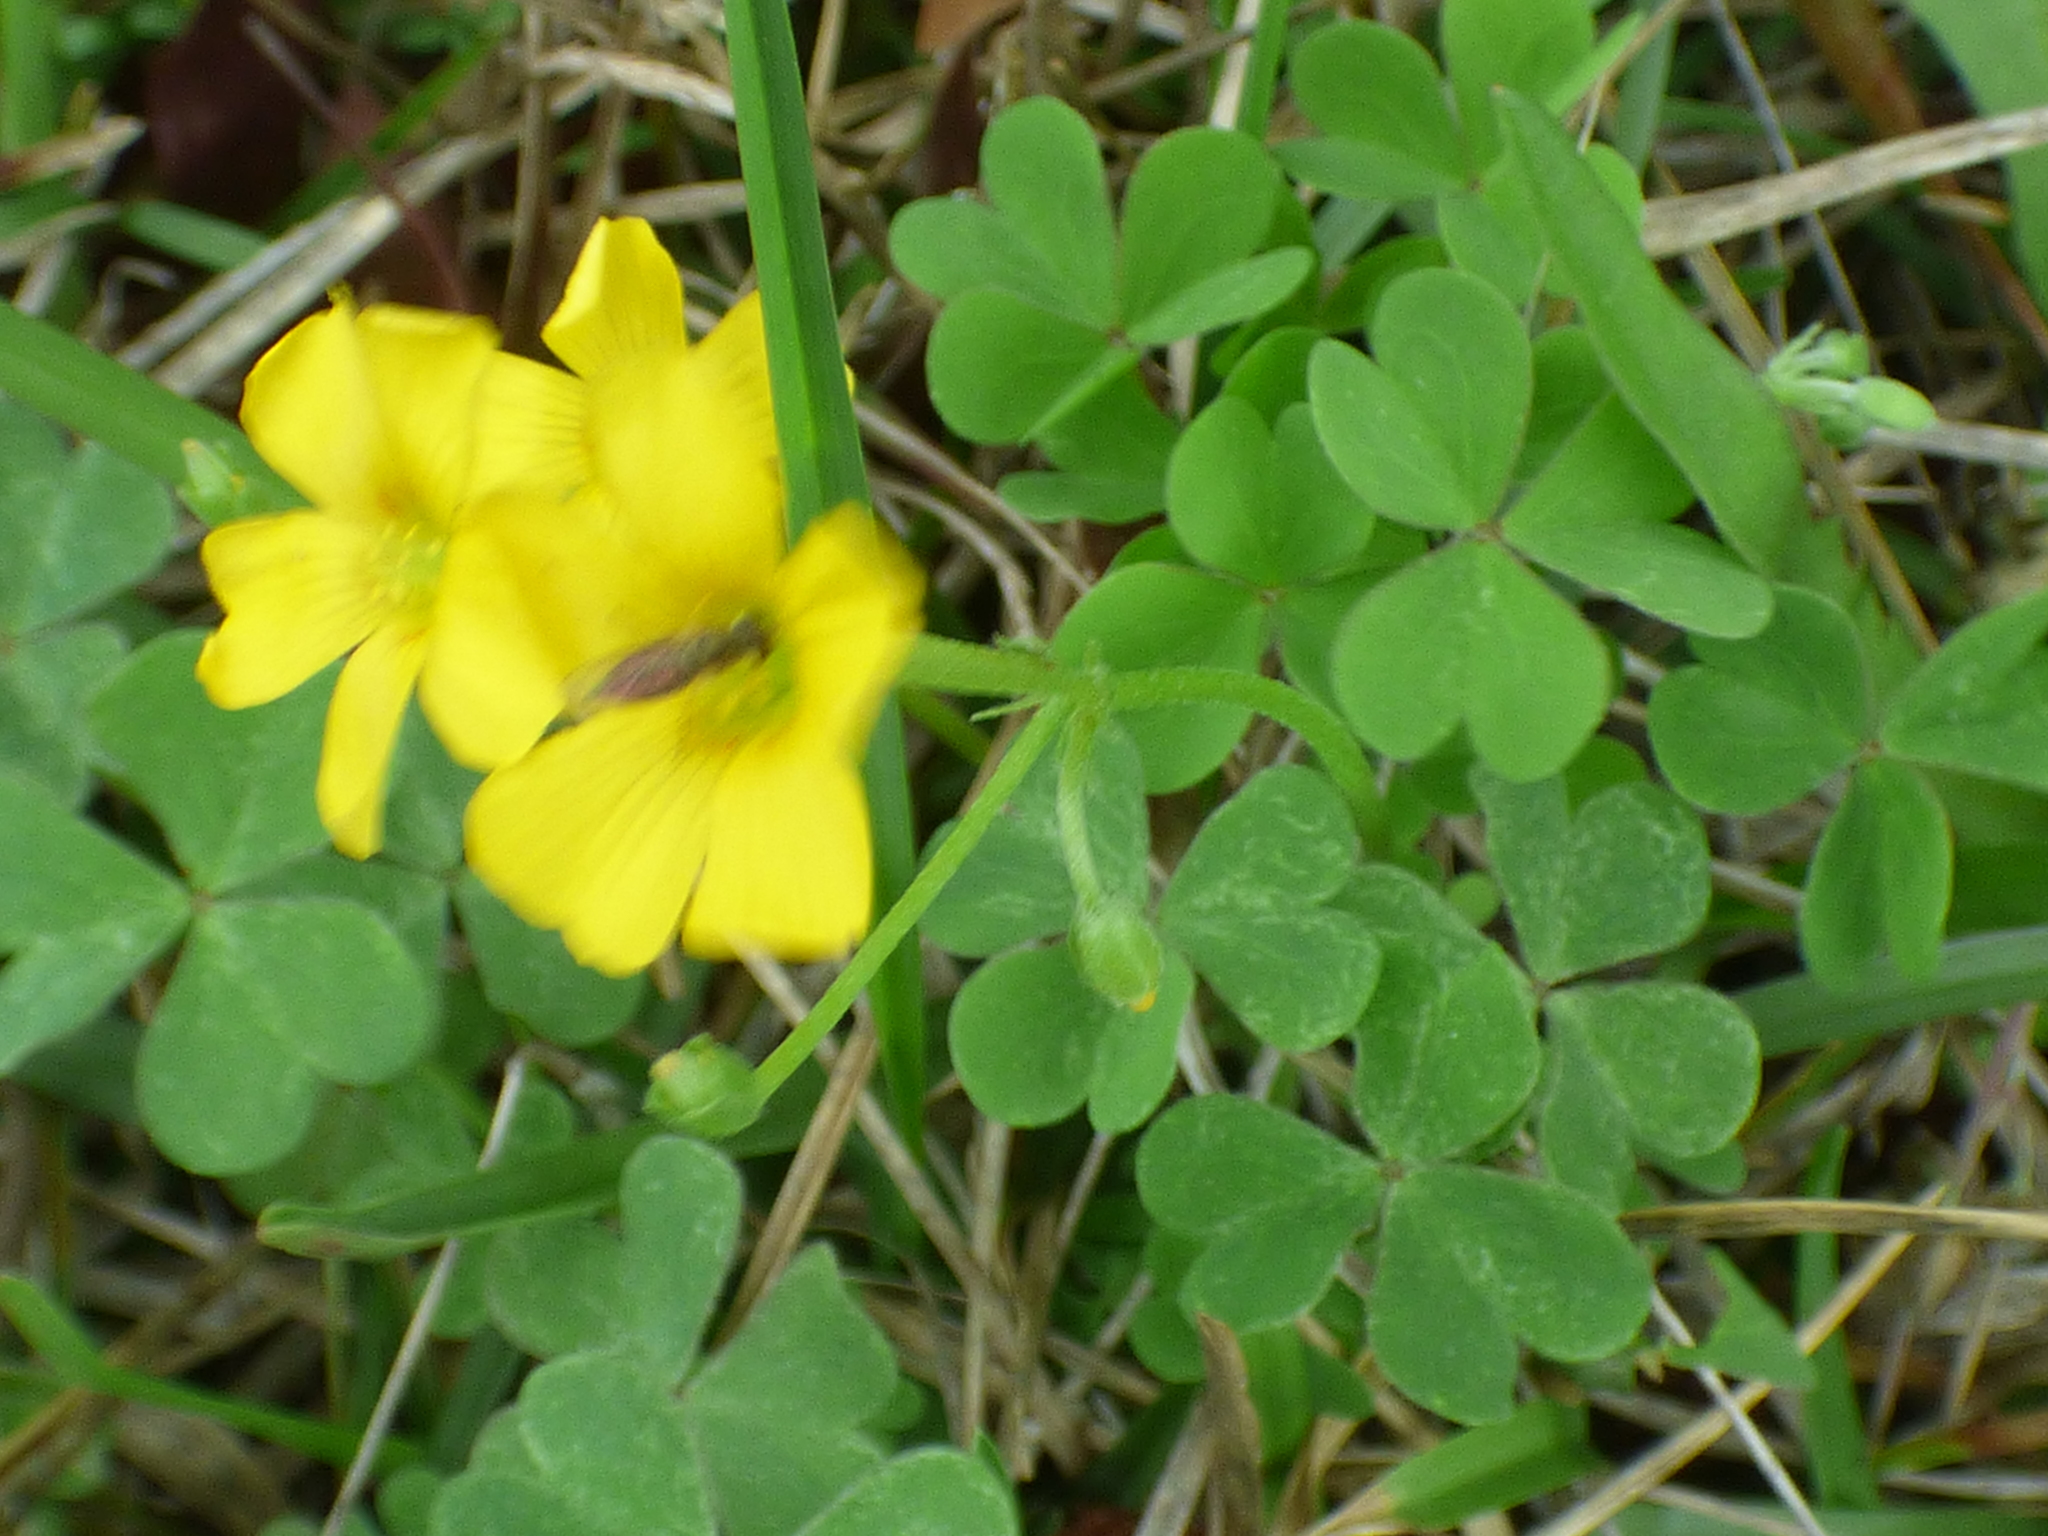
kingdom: Plantae
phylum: Tracheophyta
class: Magnoliopsida
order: Oxalidales
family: Oxalidaceae
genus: Oxalis
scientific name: Oxalis dillenii
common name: Sussex yellow-sorrel
